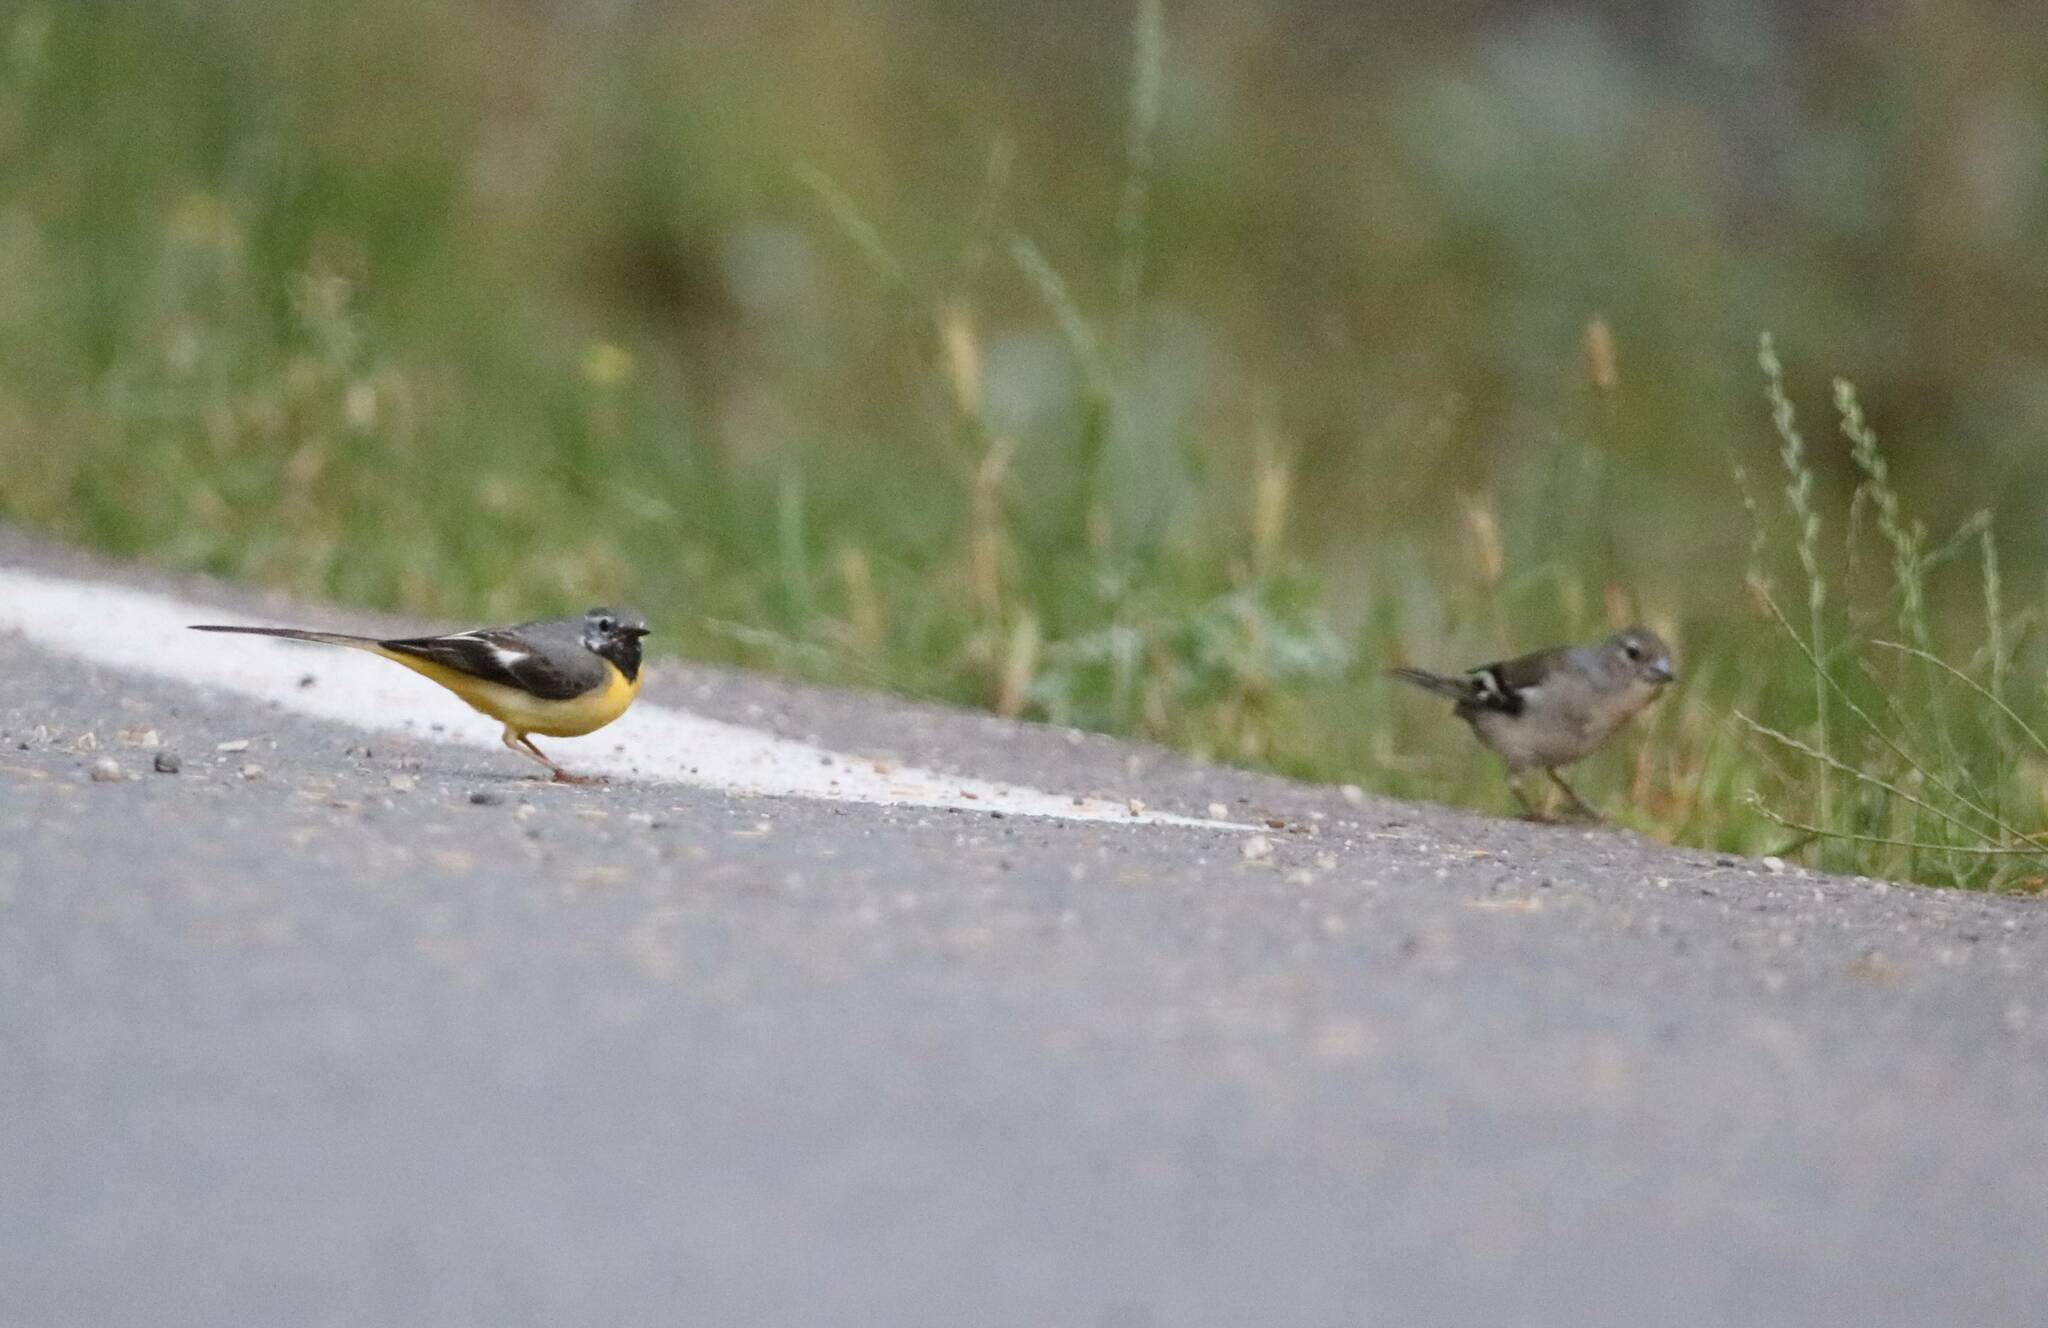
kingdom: Animalia
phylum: Chordata
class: Aves
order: Passeriformes
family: Fringillidae
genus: Fringilla
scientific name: Fringilla spodiogenys
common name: African chaffinch
